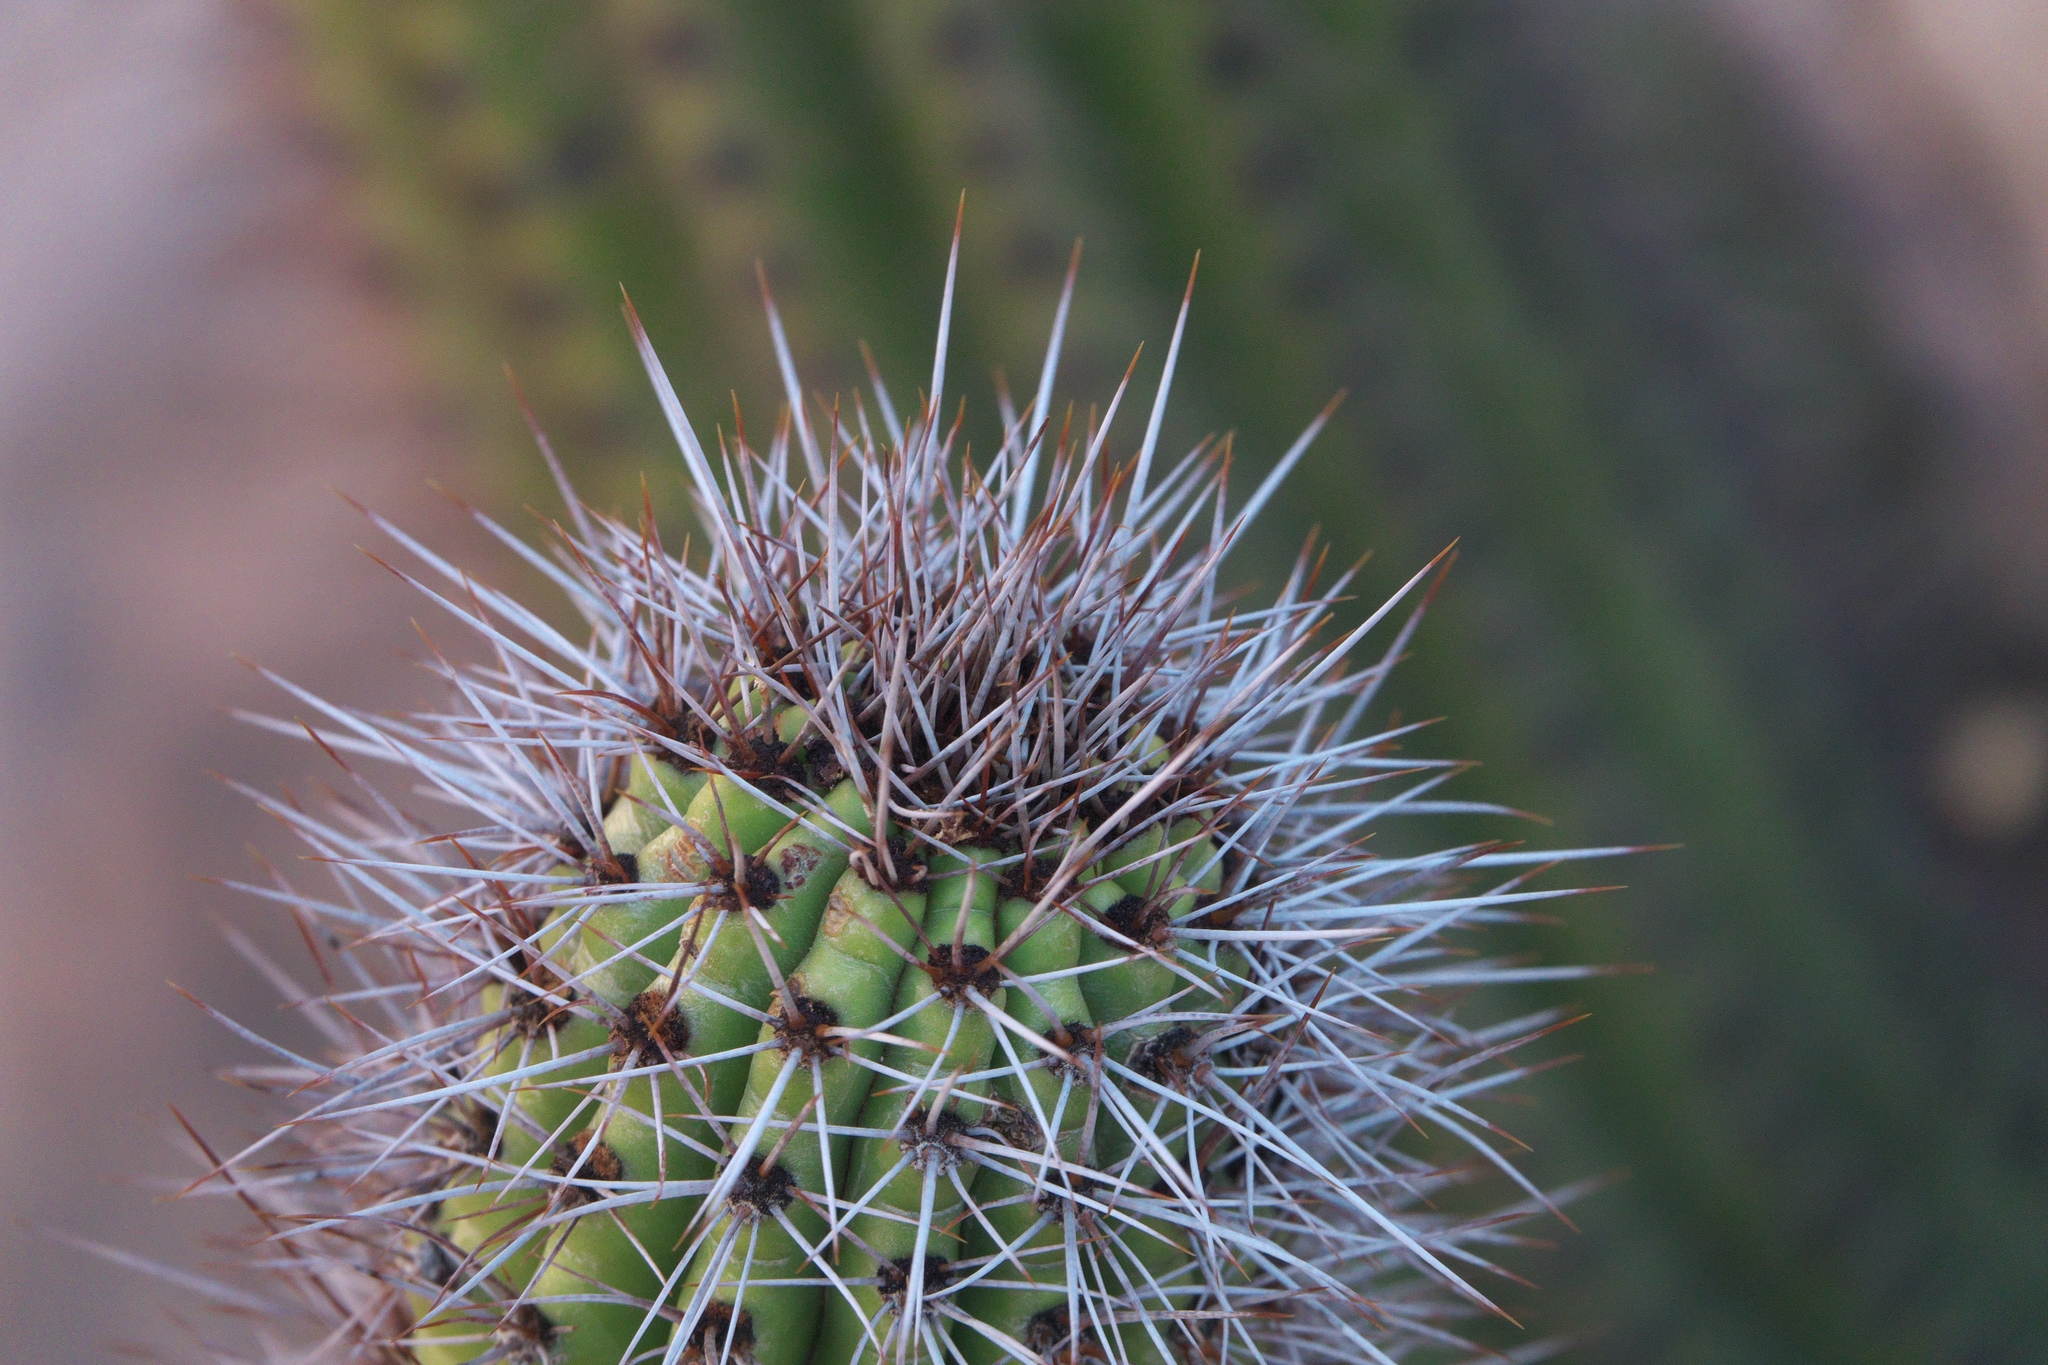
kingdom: Plantae
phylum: Tracheophyta
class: Magnoliopsida
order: Caryophyllales
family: Cactaceae
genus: Stenocereus
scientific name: Stenocereus thurberi
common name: Organ pipe cactus
